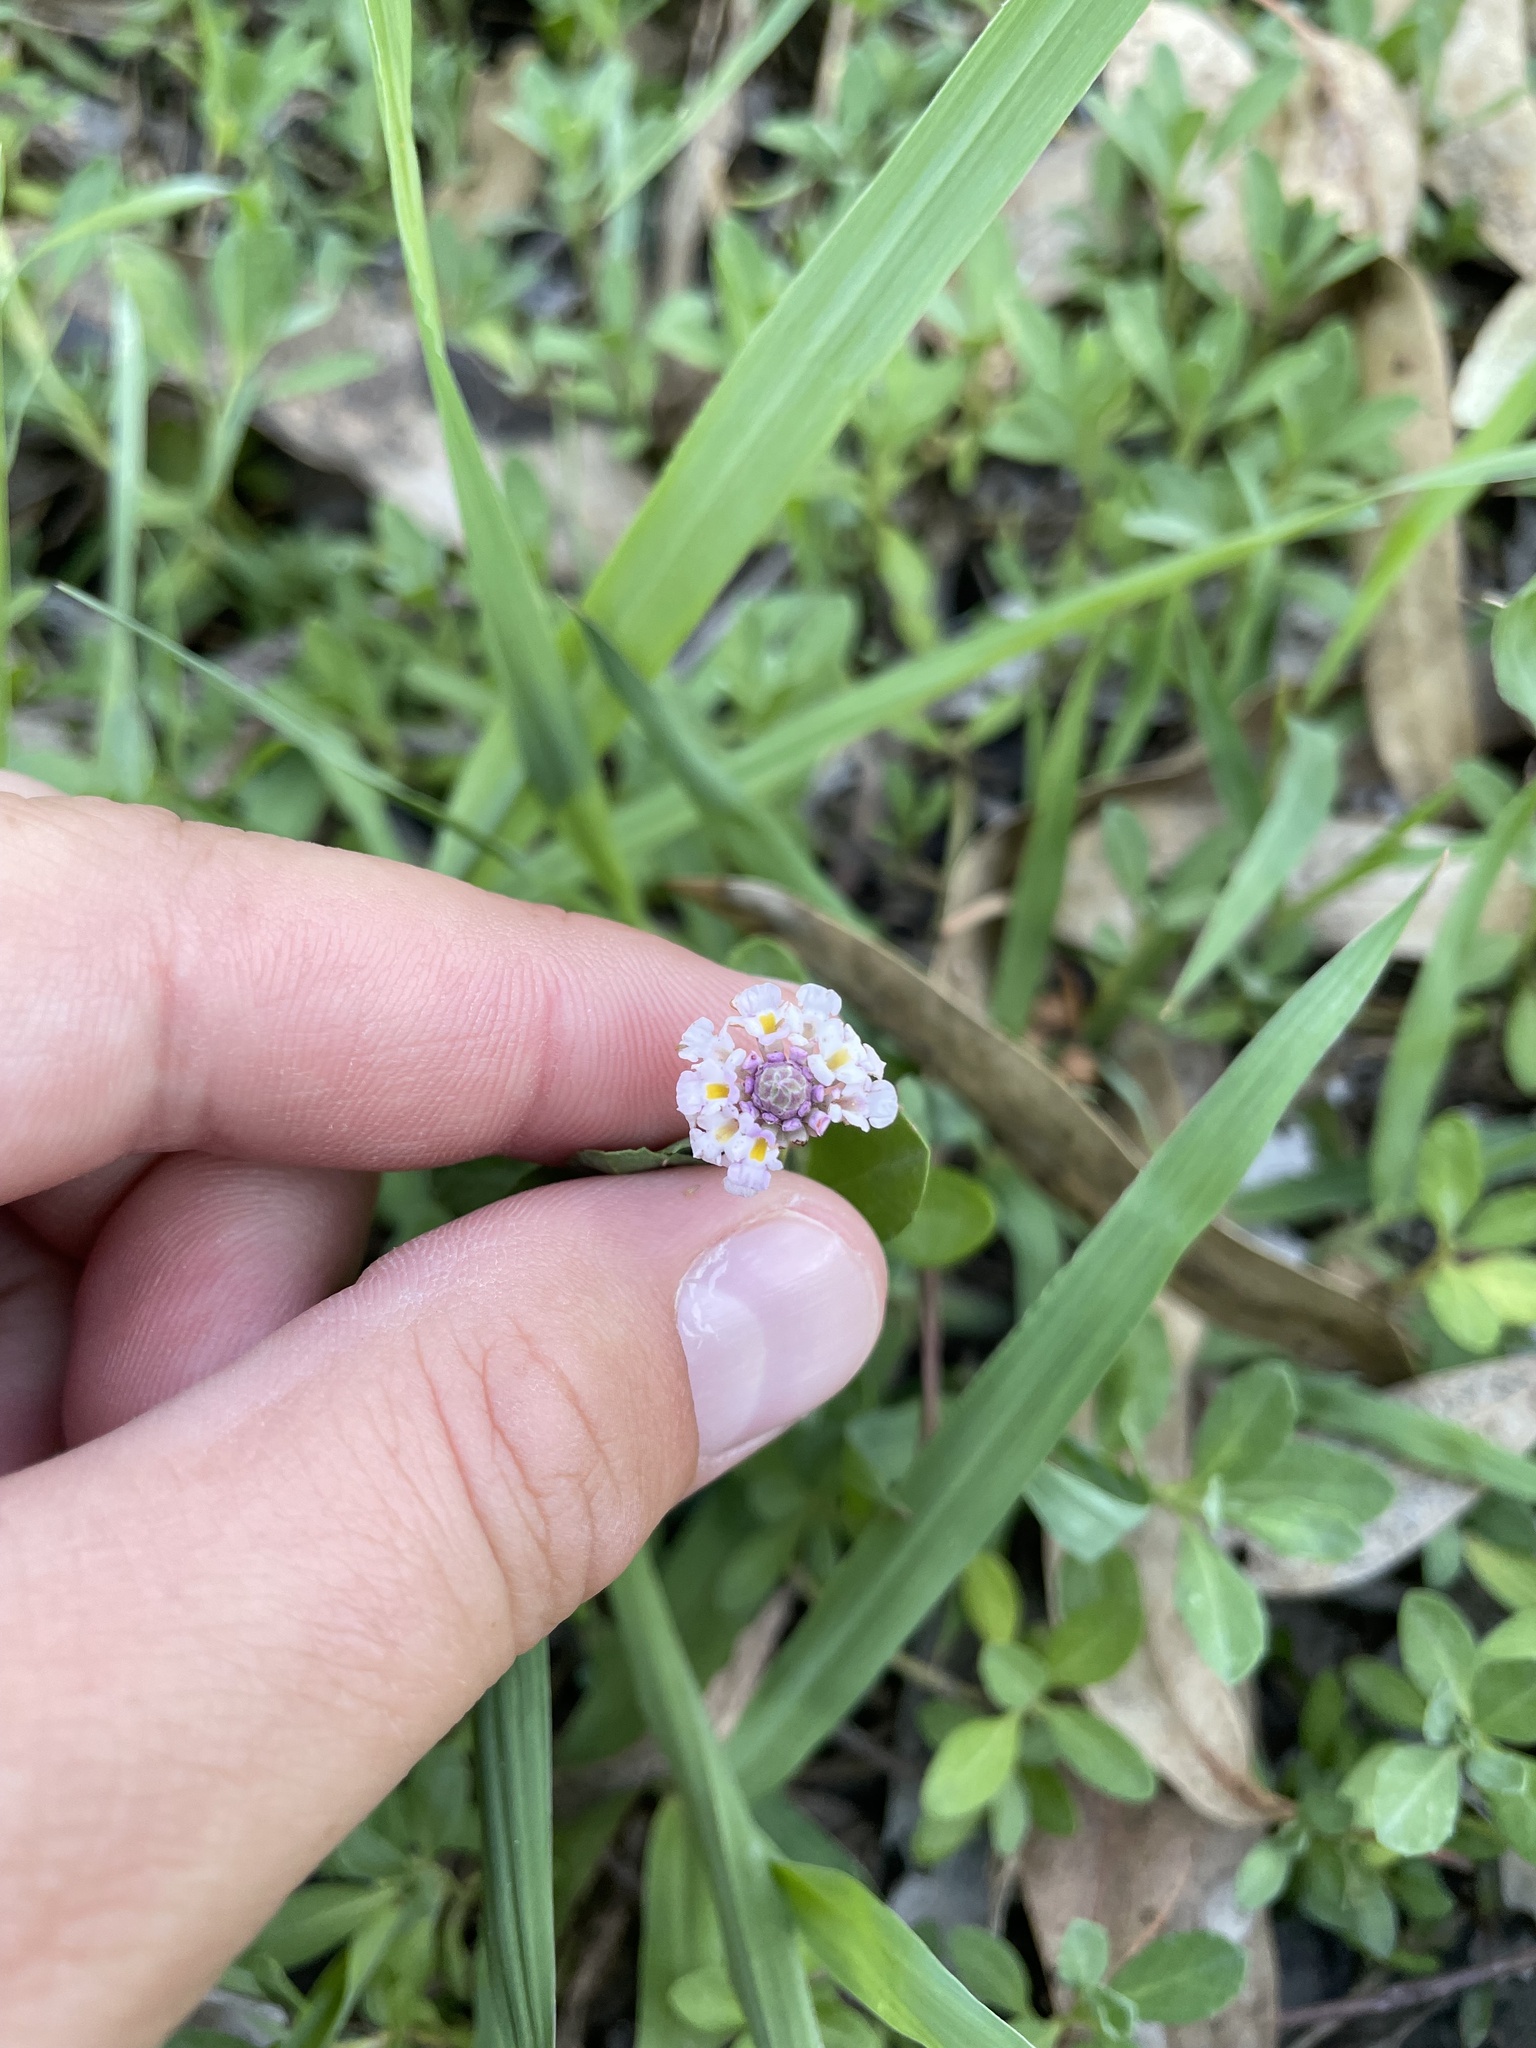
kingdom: Plantae
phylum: Tracheophyta
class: Magnoliopsida
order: Lamiales
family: Verbenaceae
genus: Phyla
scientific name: Phyla nodiflora
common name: Frogfruit
